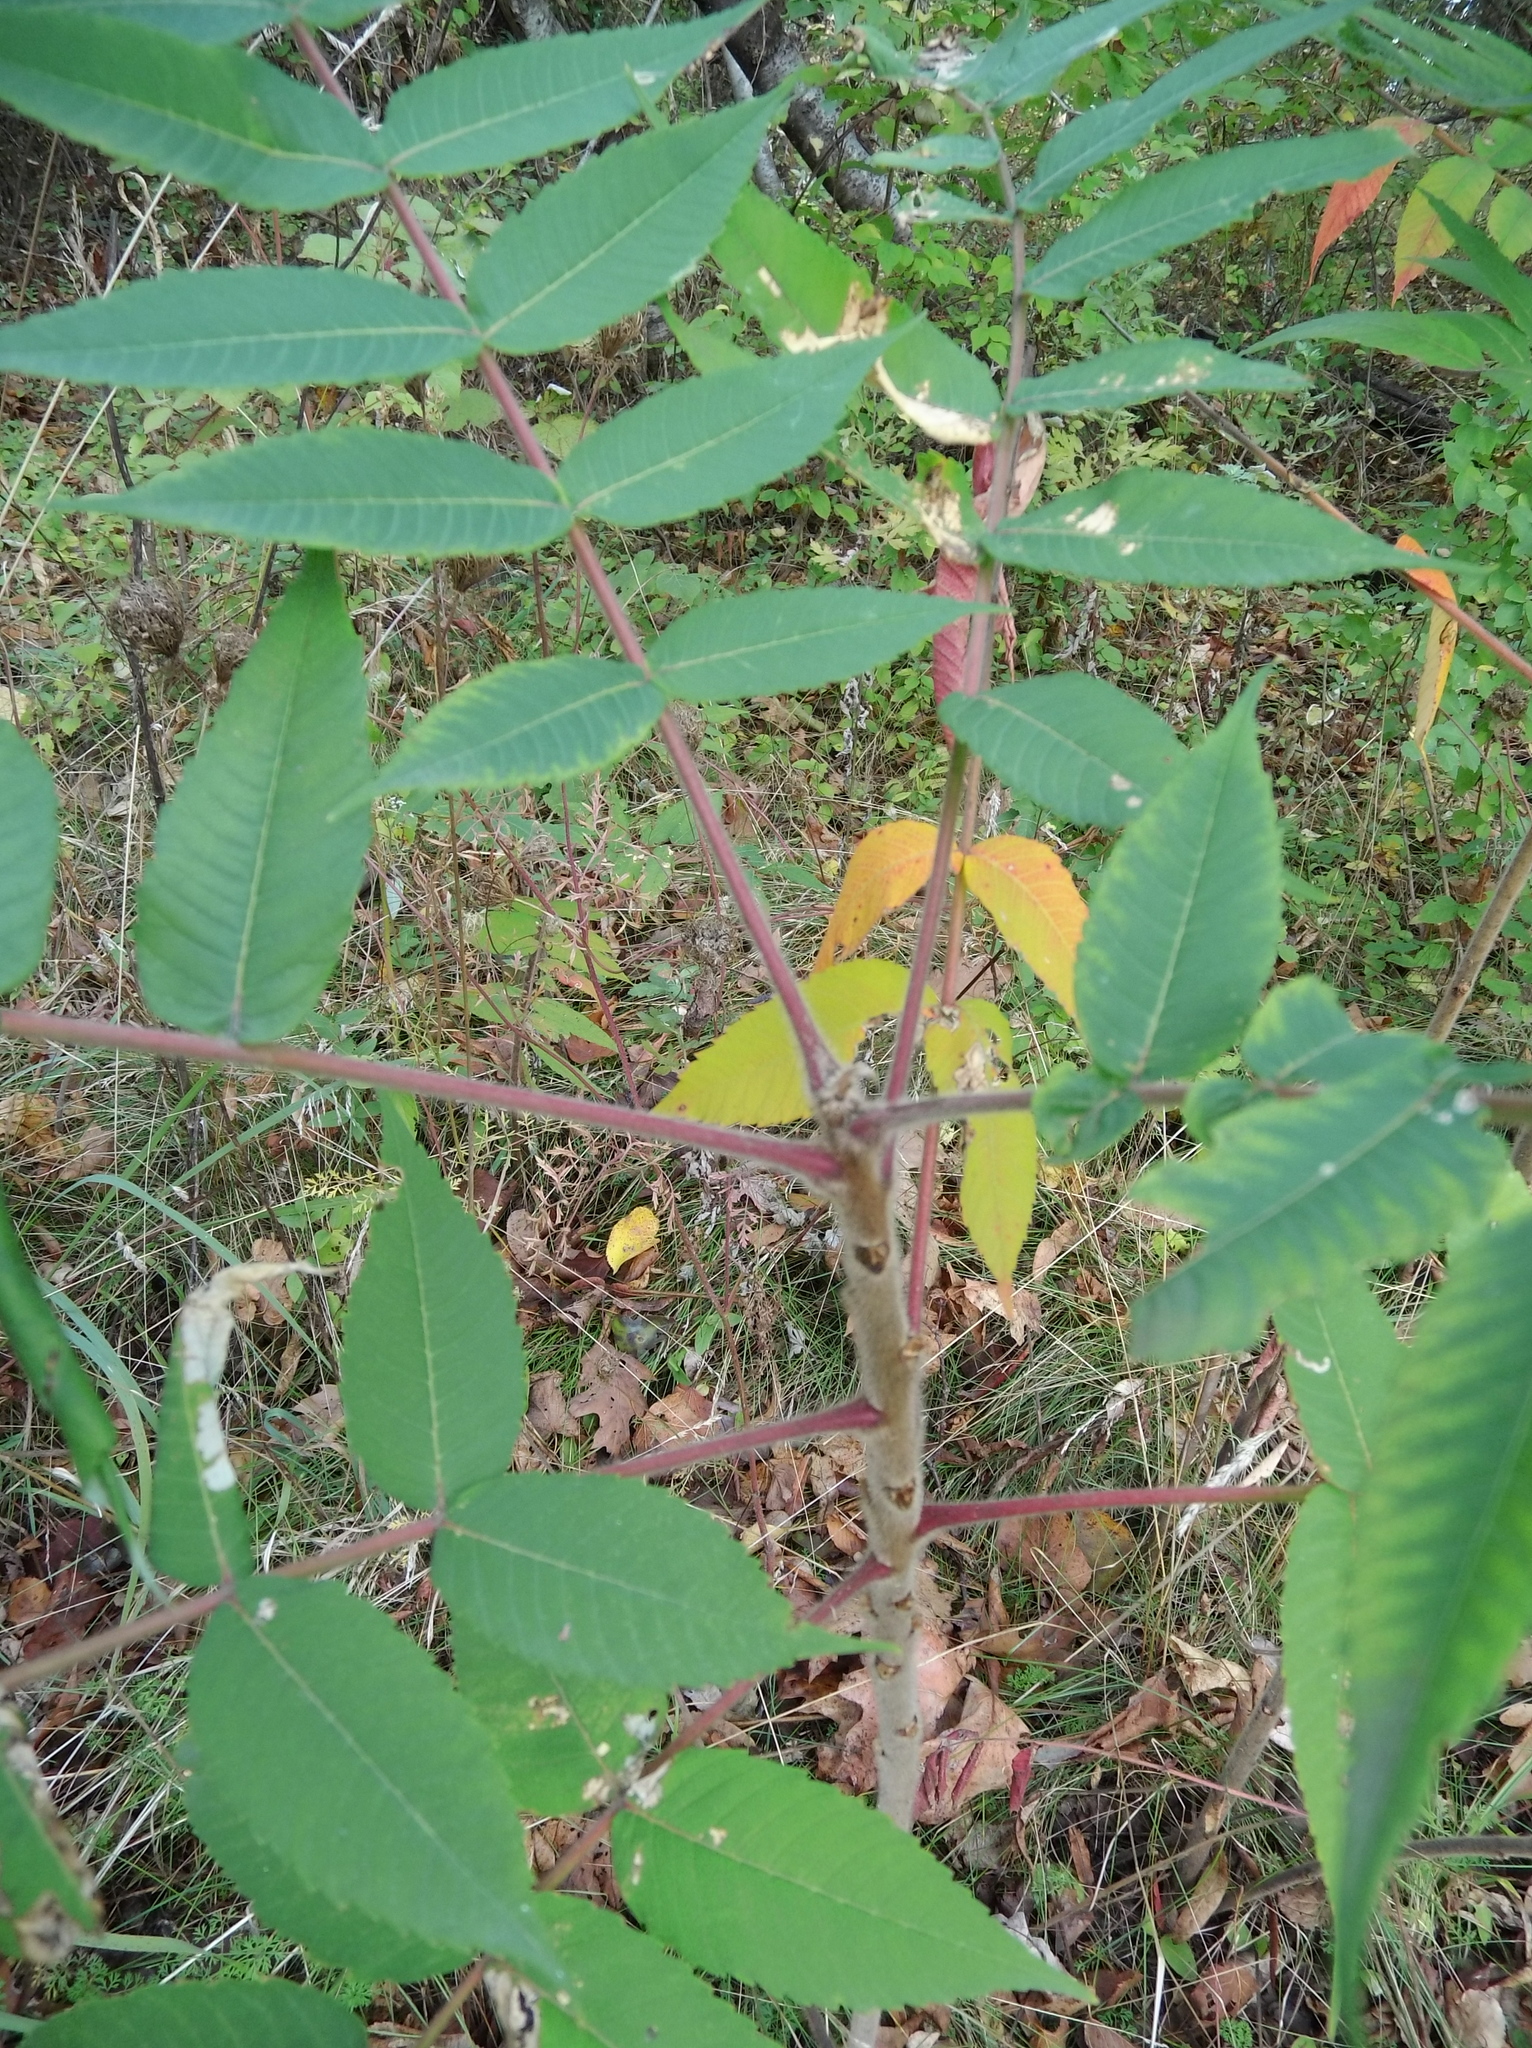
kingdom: Plantae
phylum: Tracheophyta
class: Magnoliopsida
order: Sapindales
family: Anacardiaceae
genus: Rhus
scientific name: Rhus typhina
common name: Staghorn sumac
